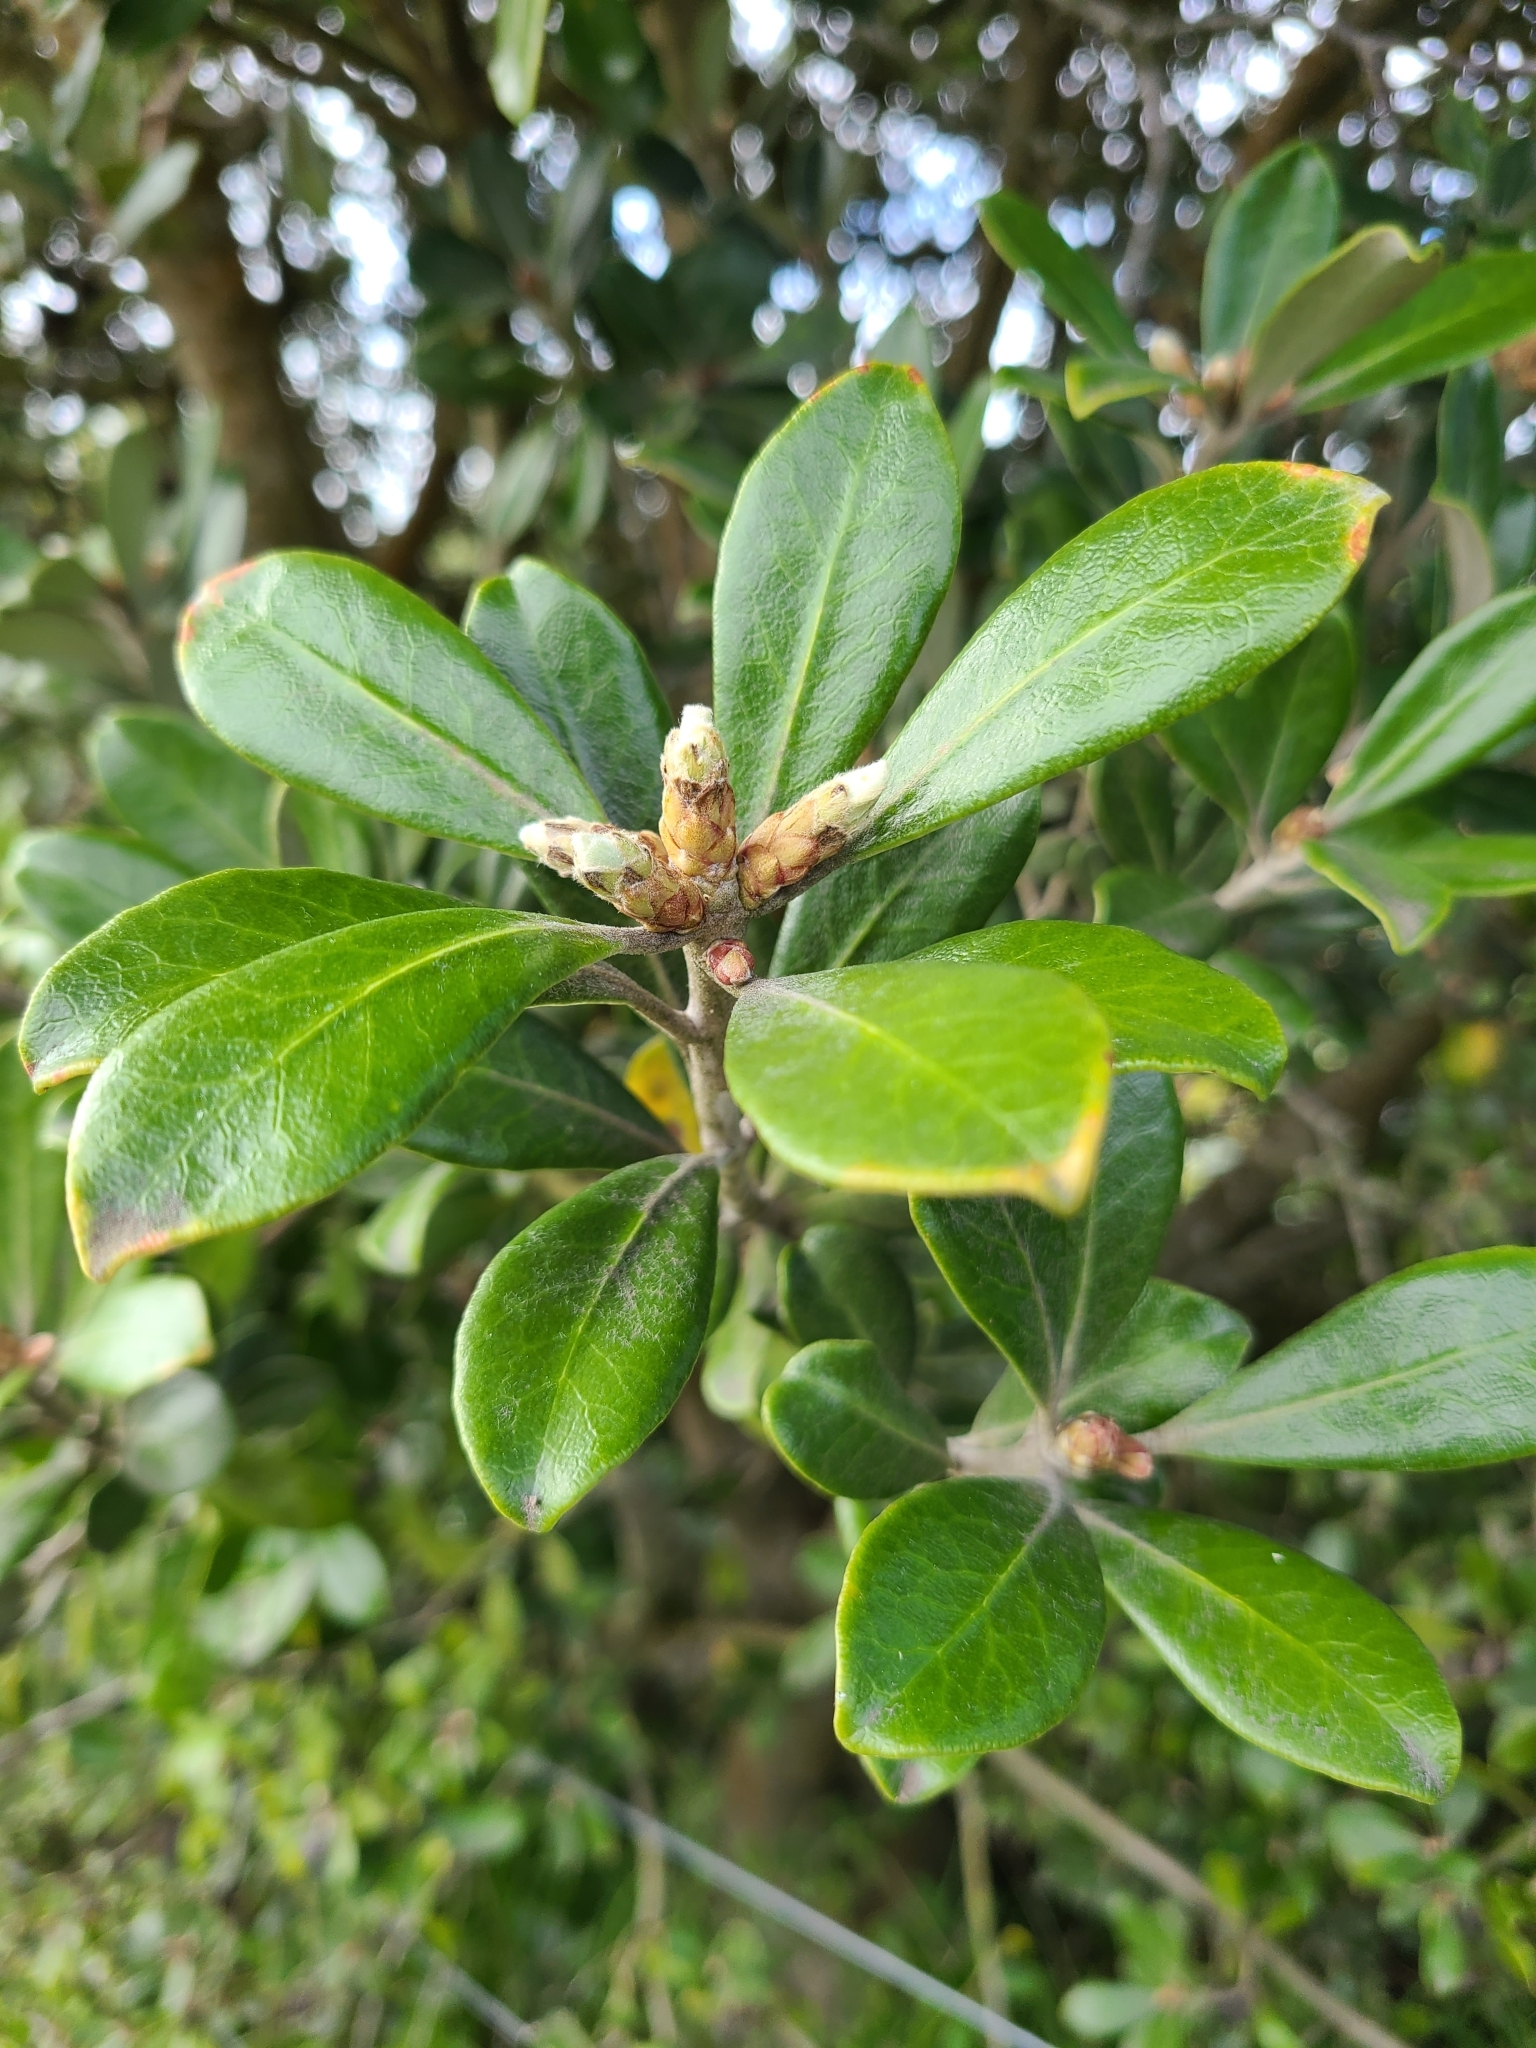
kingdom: Plantae
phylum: Tracheophyta
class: Magnoliopsida
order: Apiales
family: Pittosporaceae
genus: Pittosporum
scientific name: Pittosporum crassifolium
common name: Karo
